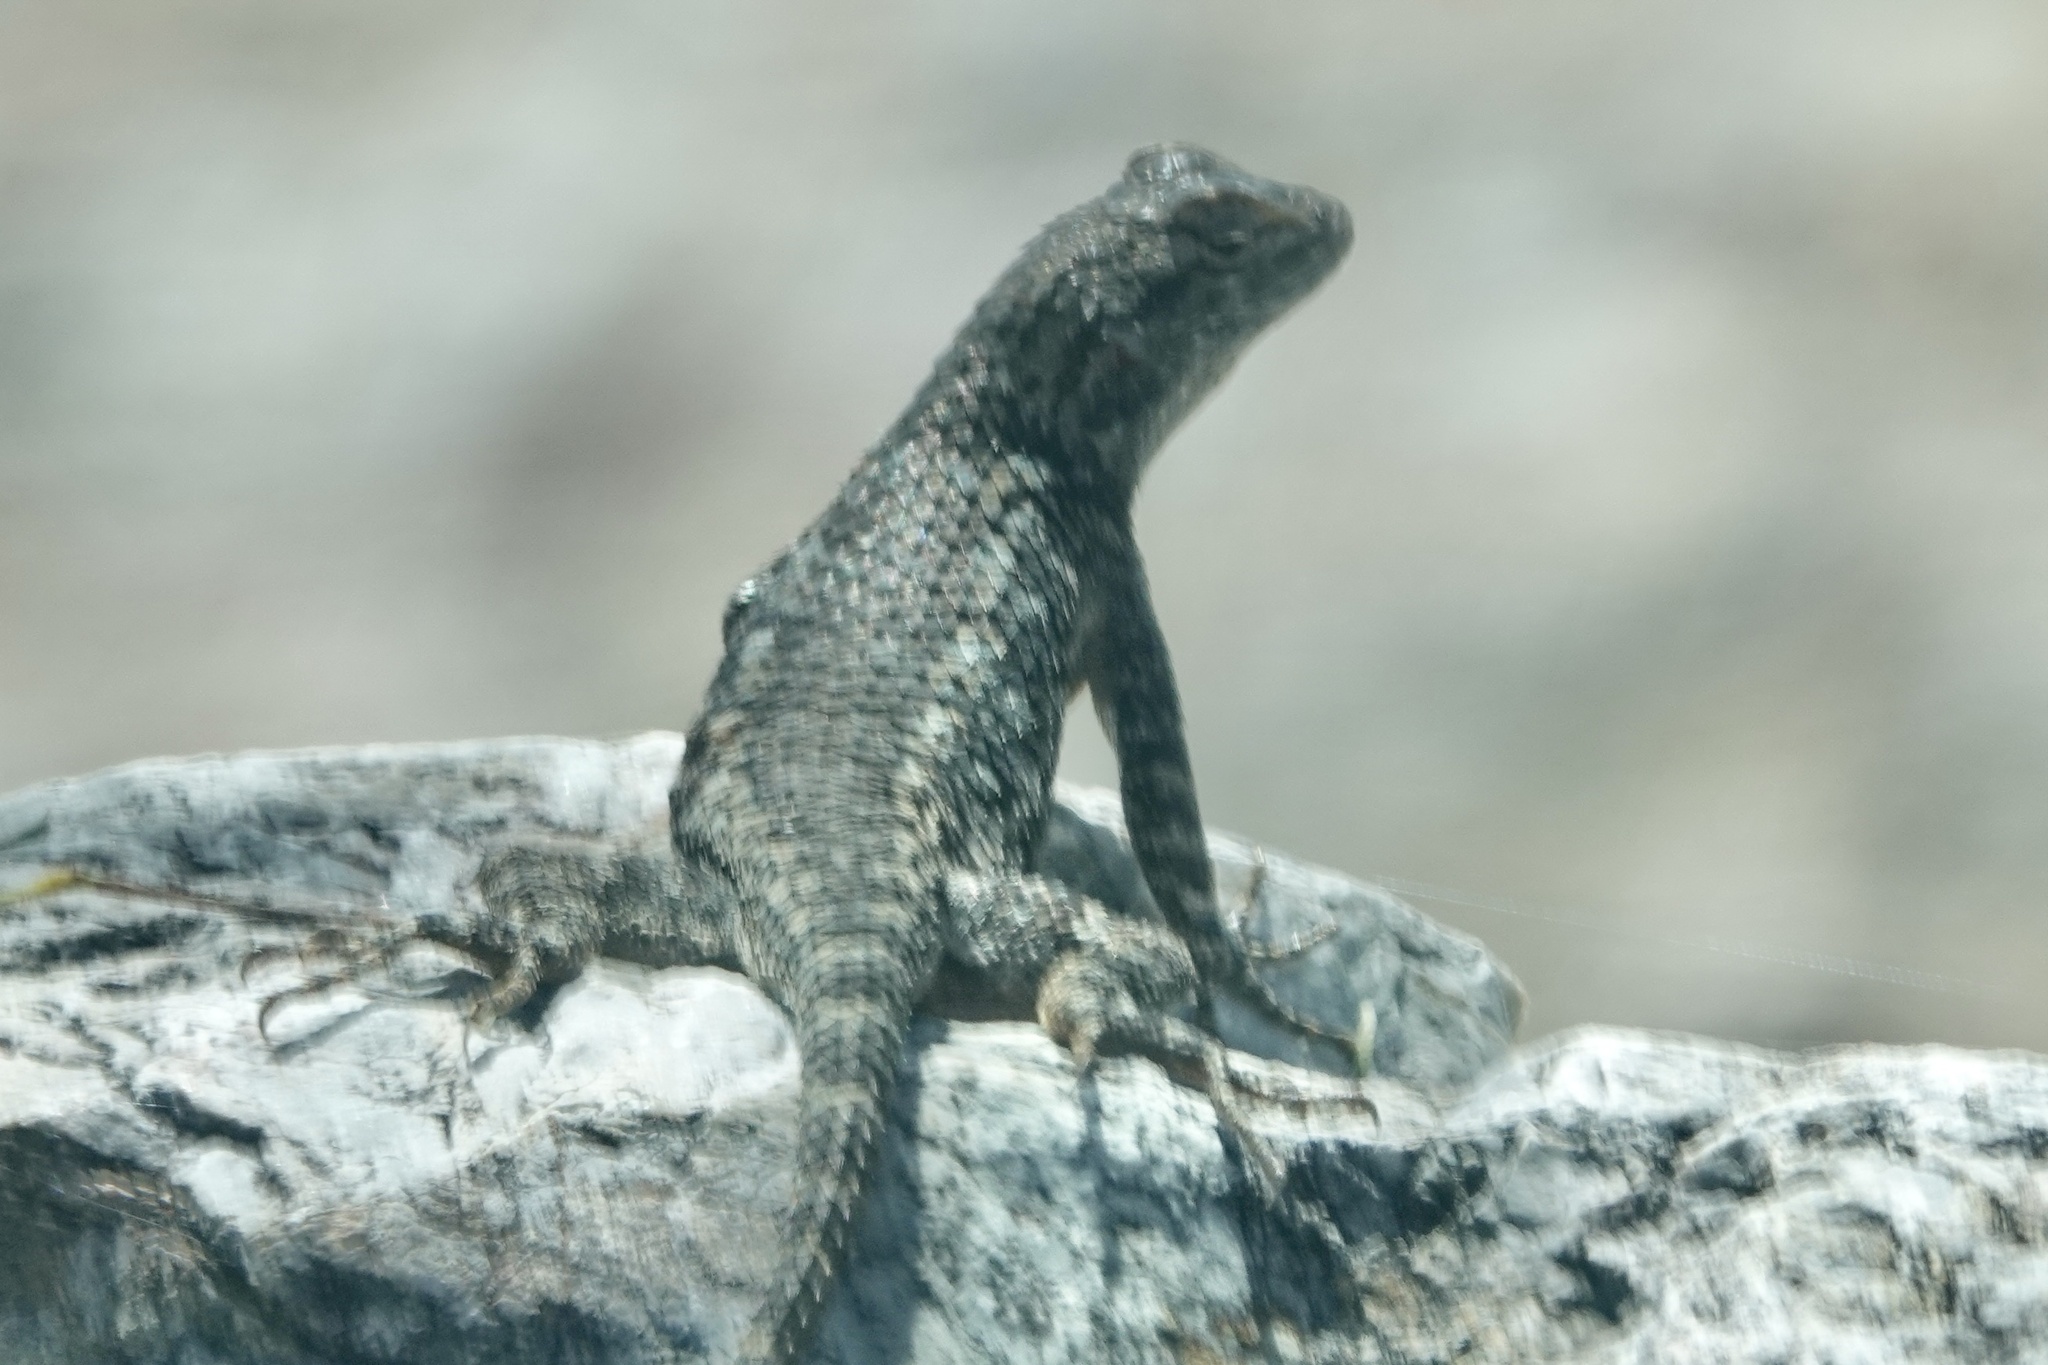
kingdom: Animalia
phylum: Chordata
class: Squamata
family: Phrynosomatidae
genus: Sceloporus
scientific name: Sceloporus clarkii
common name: Clark's spiny lizard
